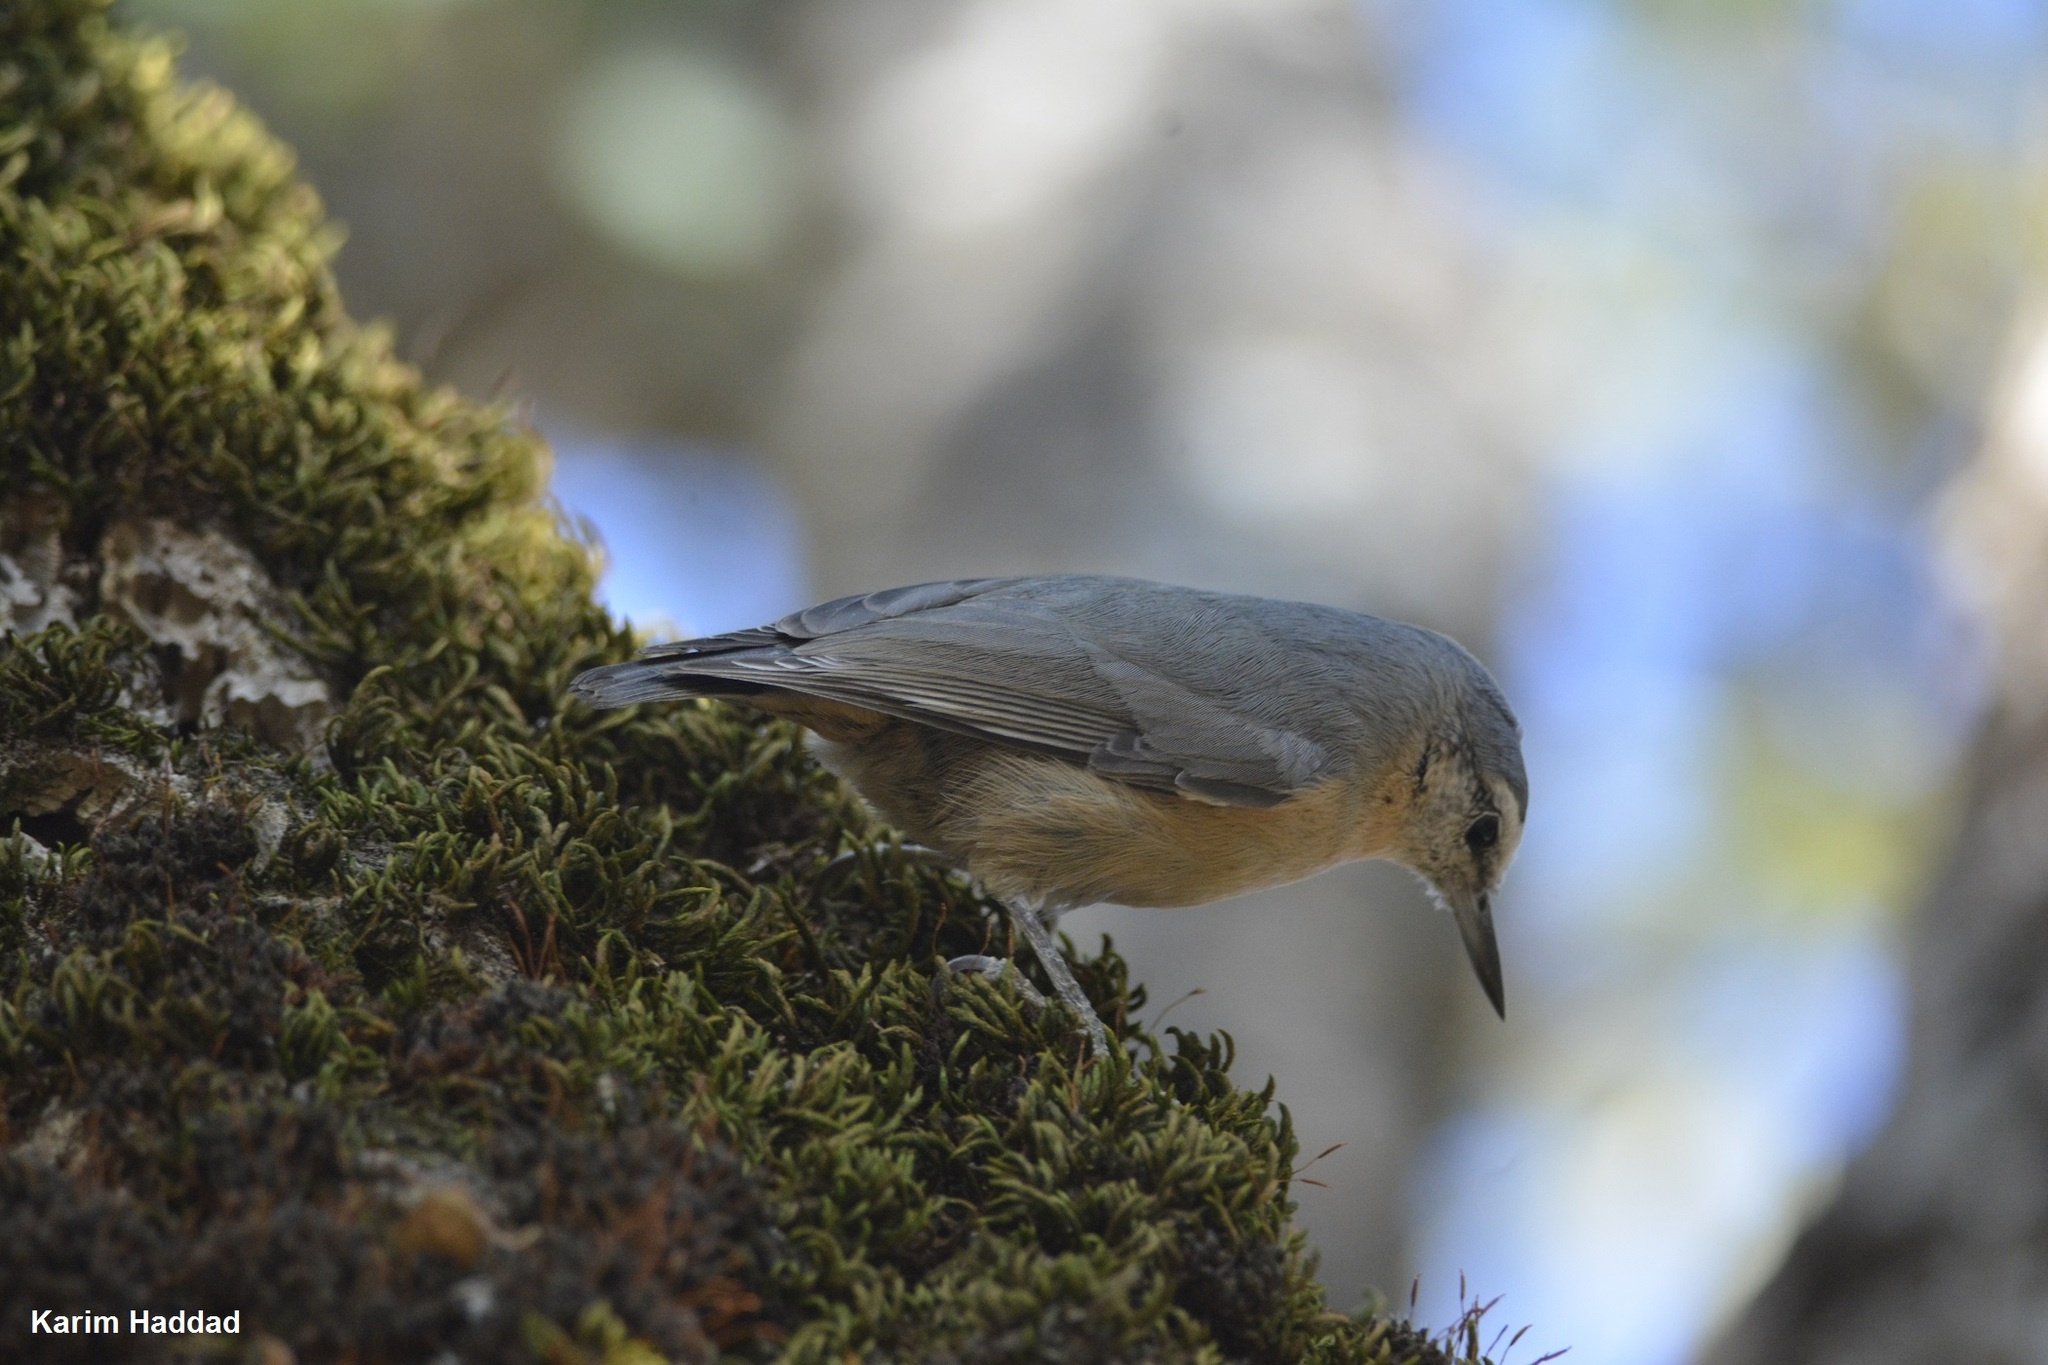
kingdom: Animalia
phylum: Chordata
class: Aves
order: Passeriformes
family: Sittidae
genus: Sitta
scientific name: Sitta ledanti
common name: Algerian nuthatch
